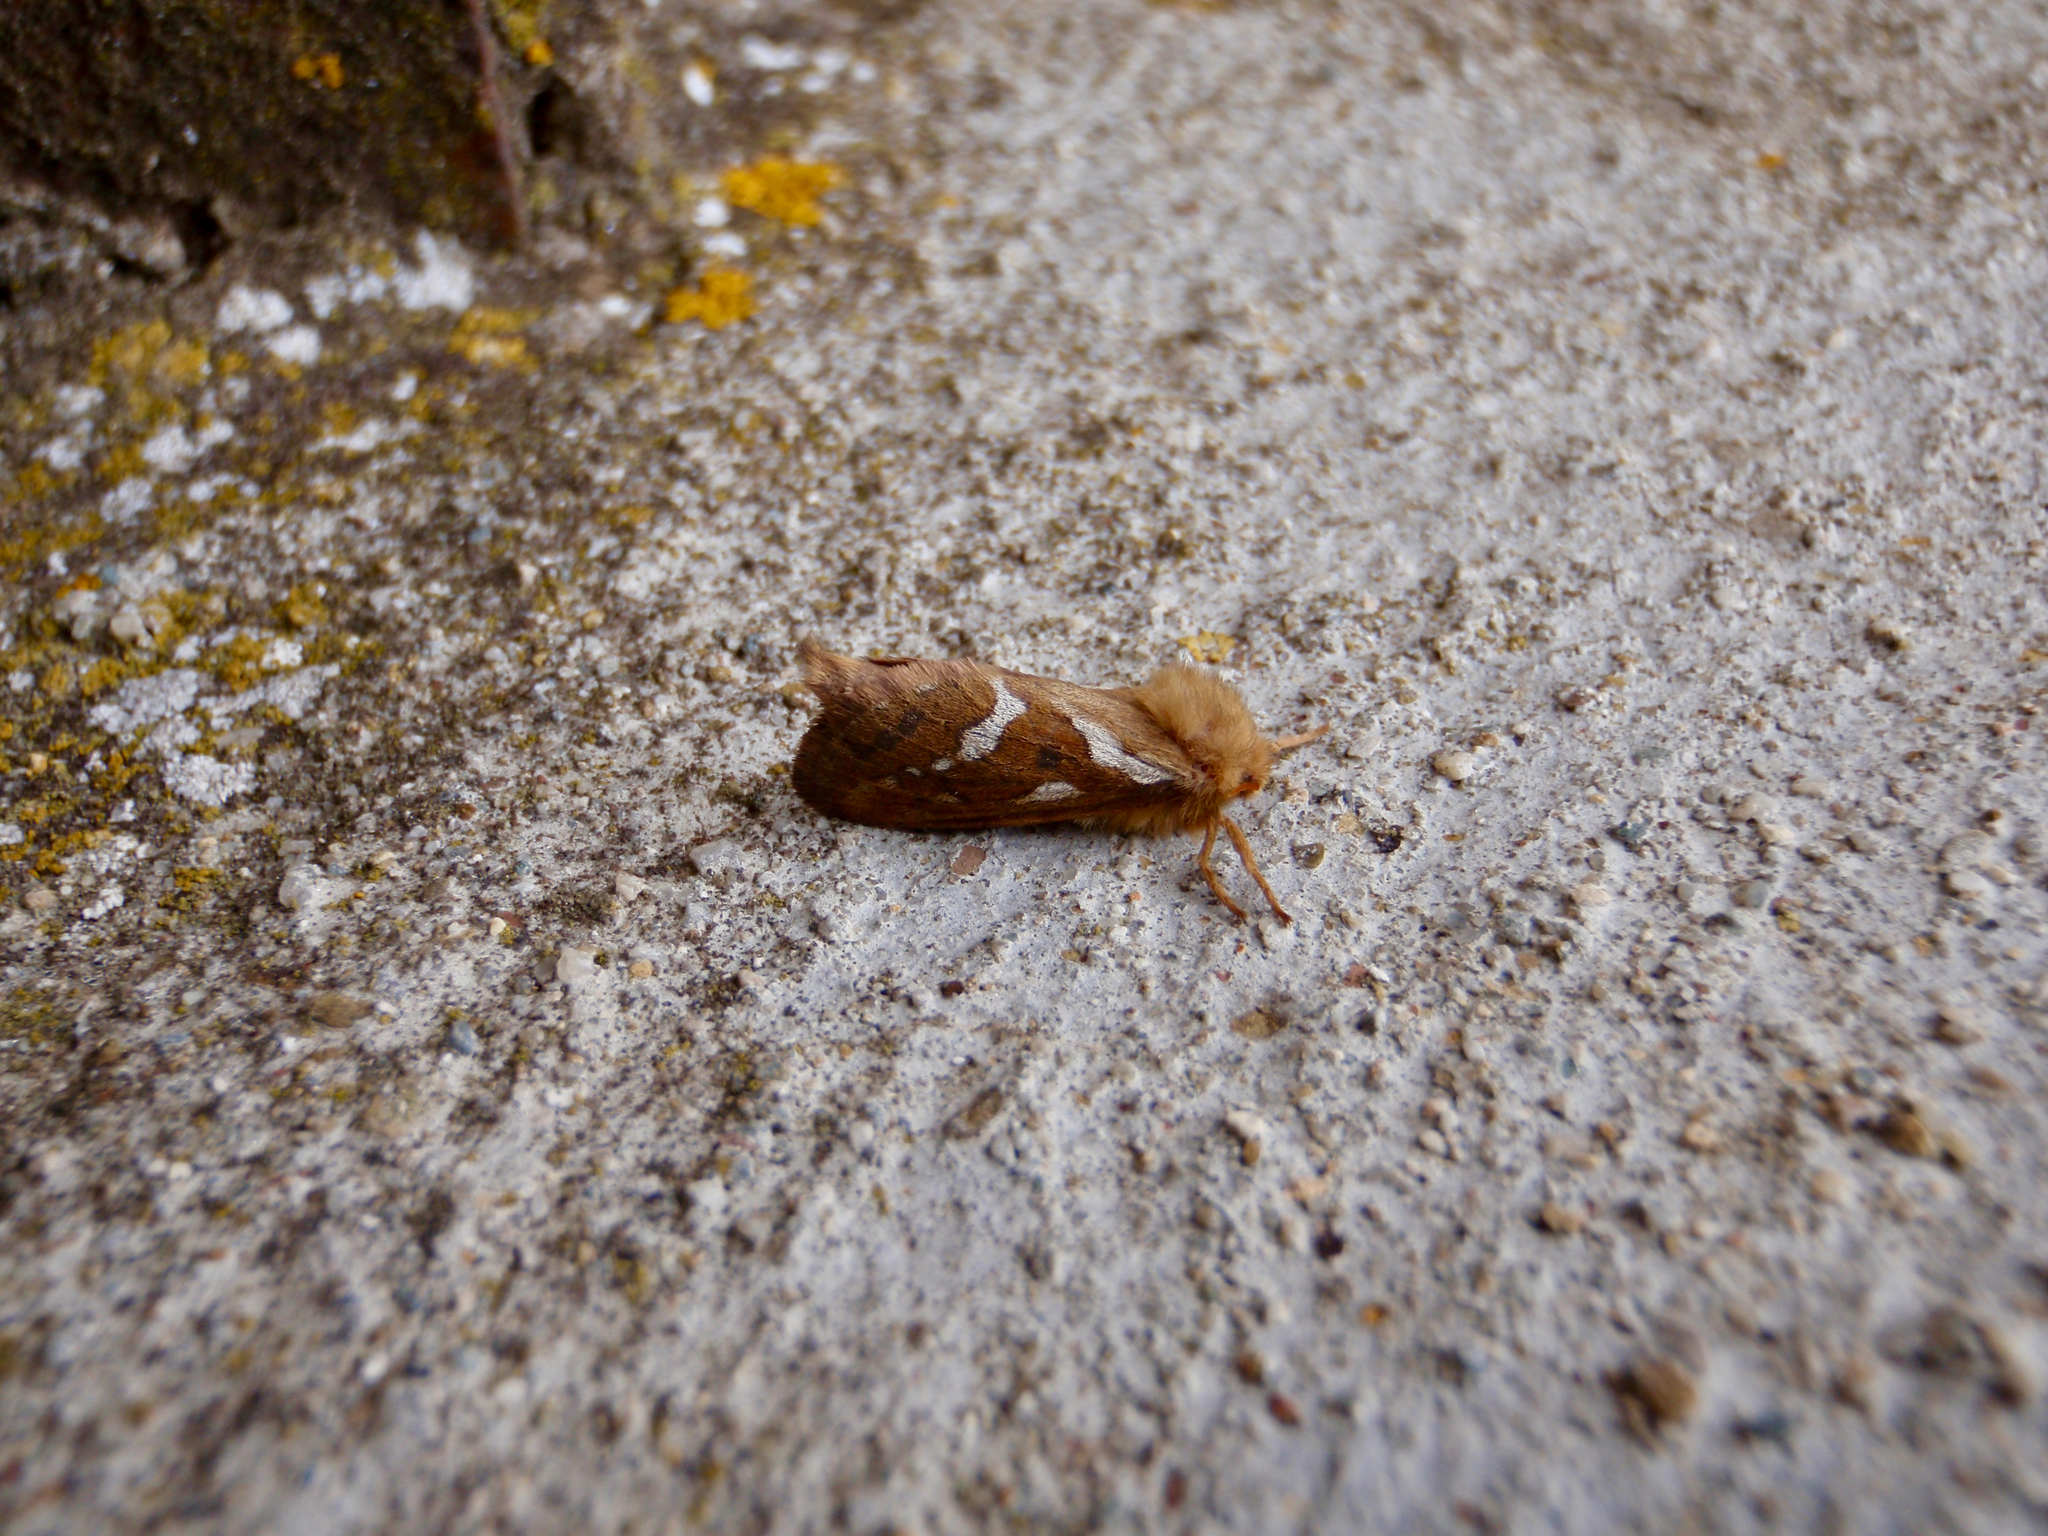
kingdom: Animalia
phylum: Arthropoda
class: Insecta
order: Lepidoptera
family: Hepialidae
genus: Korscheltellus
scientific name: Korscheltellus lupulina
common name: Common swift
